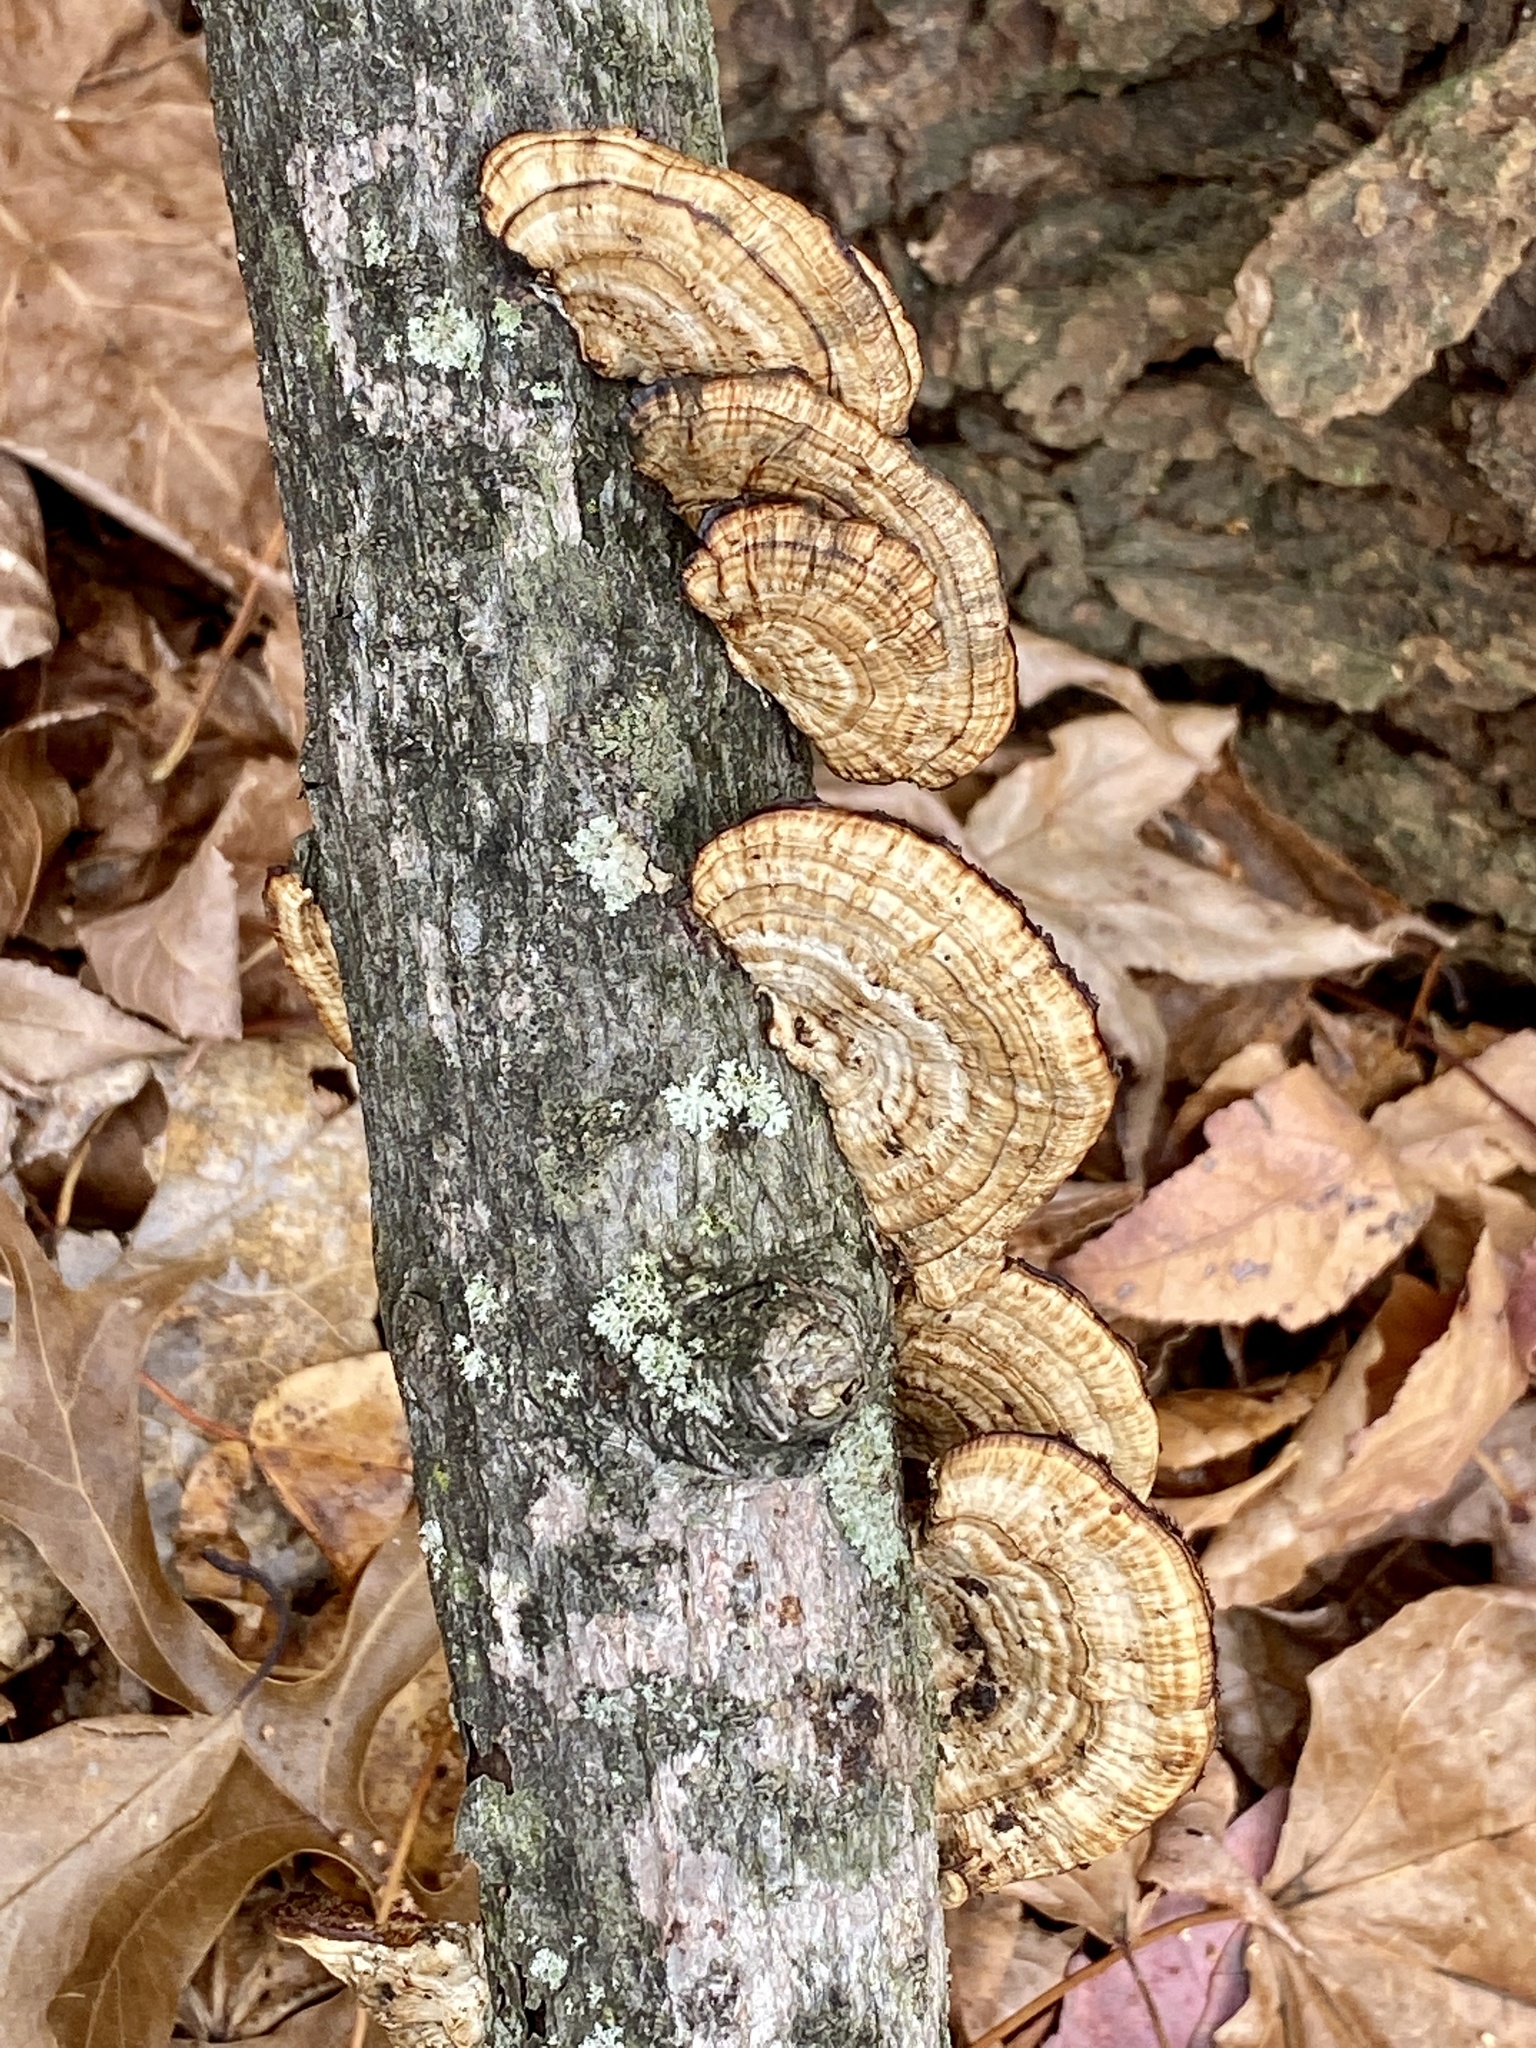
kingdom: Fungi
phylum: Basidiomycota
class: Agaricomycetes
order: Polyporales
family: Polyporaceae
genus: Daedaleopsis
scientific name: Daedaleopsis confragosa
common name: Blushing bracket
